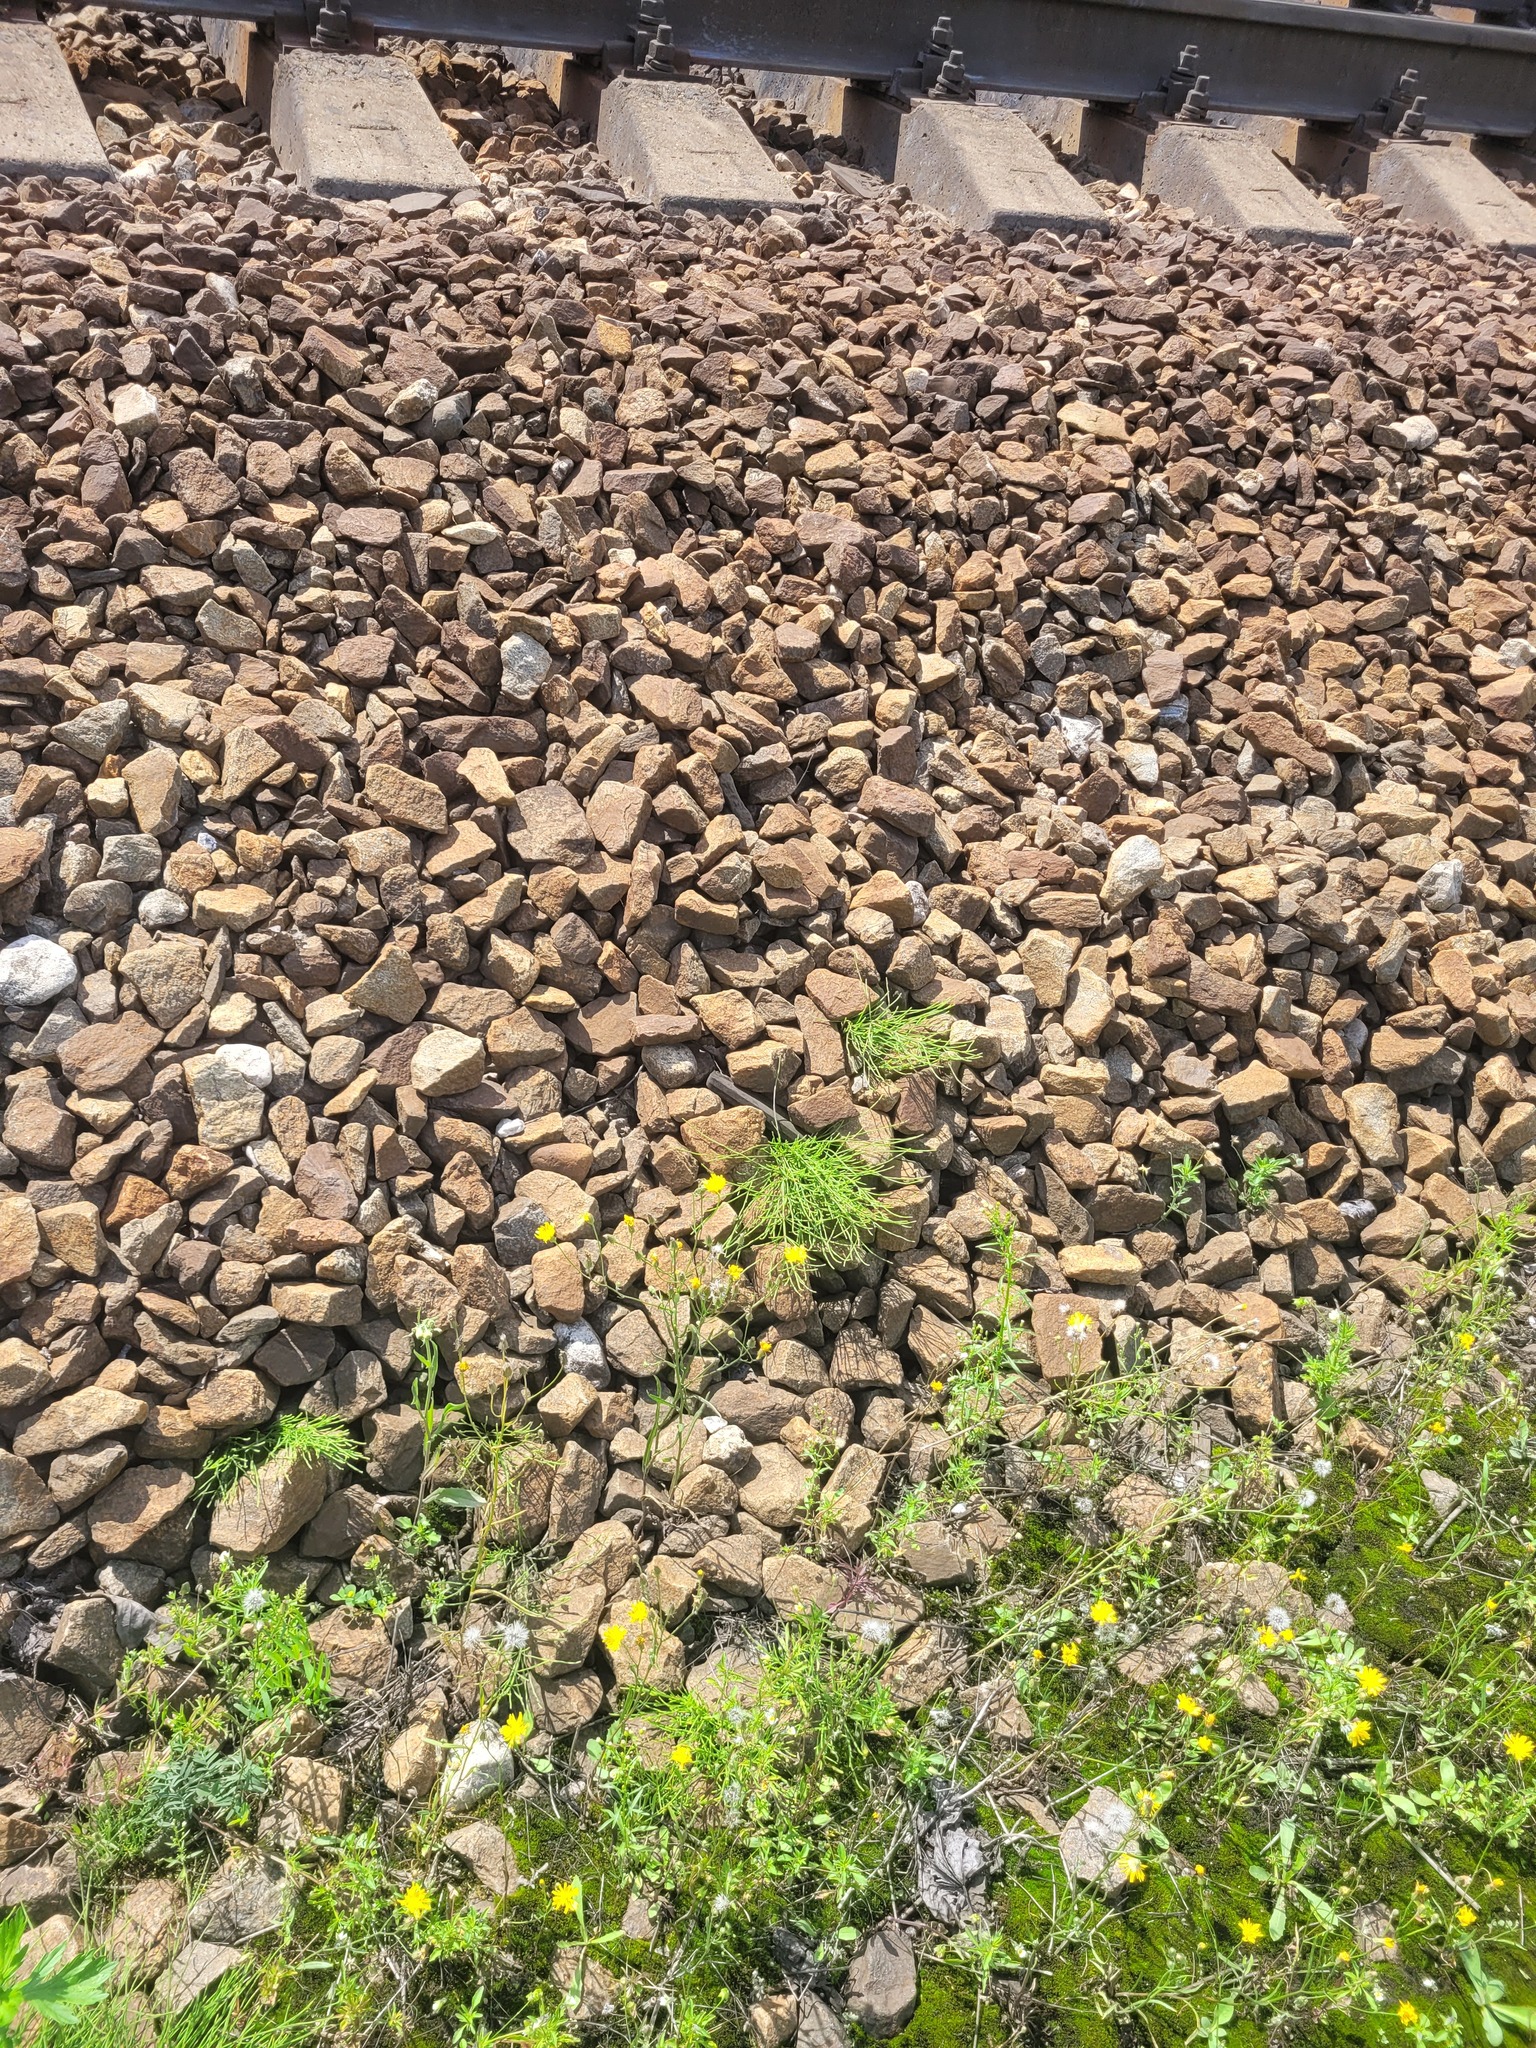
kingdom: Plantae
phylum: Tracheophyta
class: Polypodiopsida
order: Equisetales
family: Equisetaceae
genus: Equisetum
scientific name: Equisetum arvense
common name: Field horsetail
